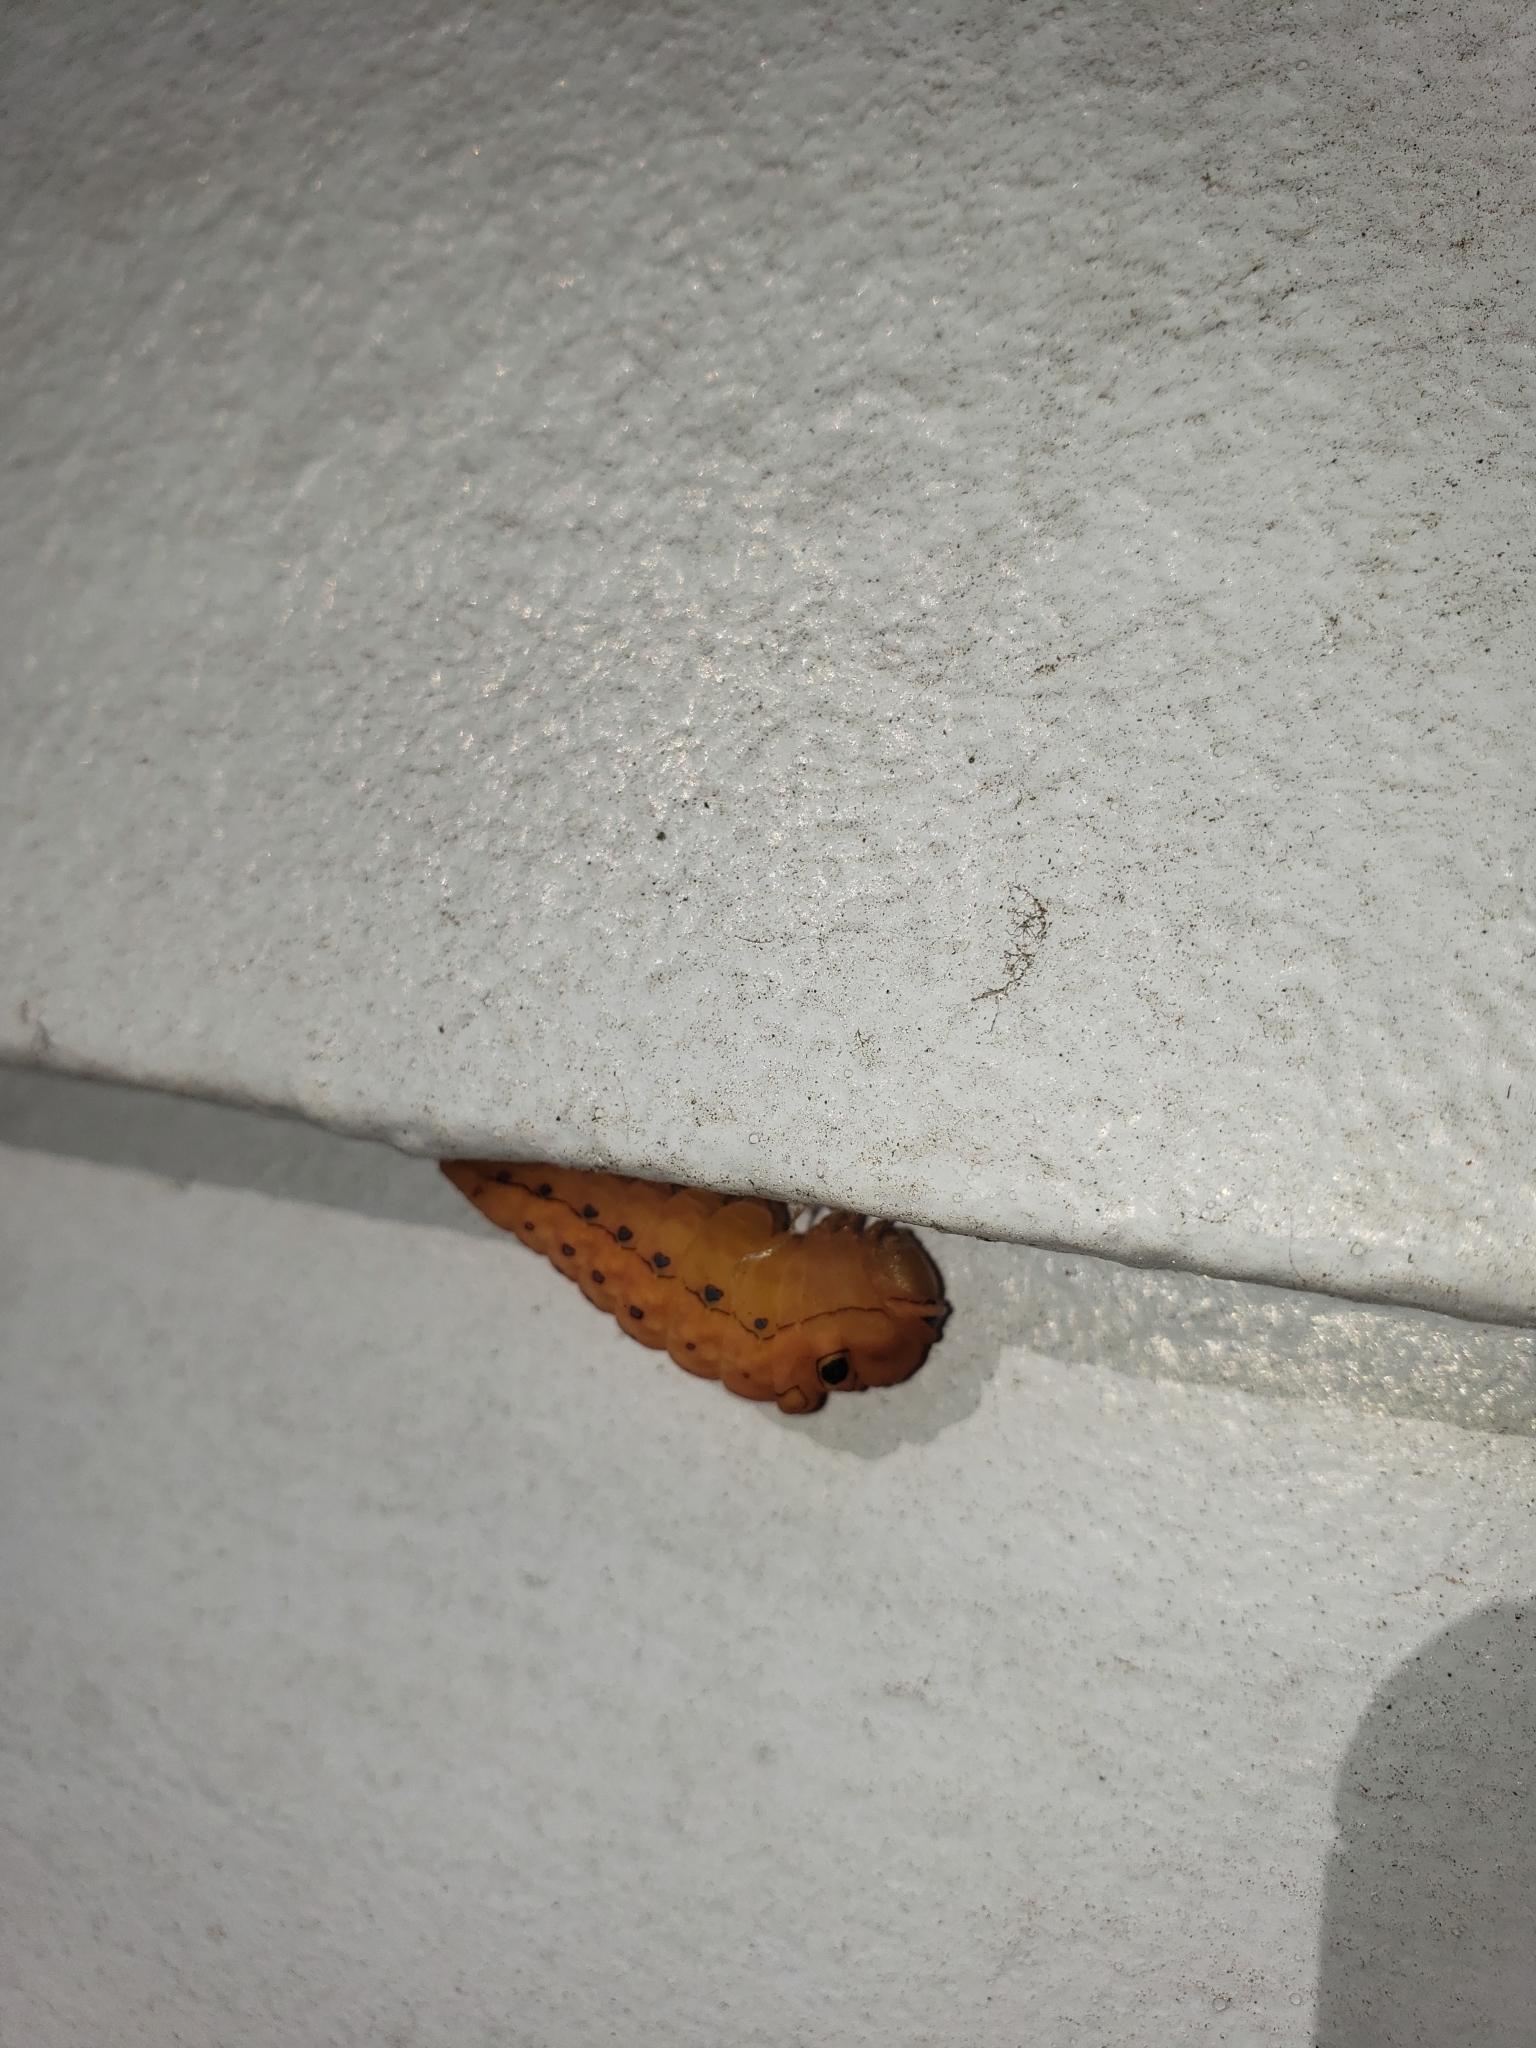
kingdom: Animalia
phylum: Arthropoda
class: Insecta
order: Lepidoptera
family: Papilionidae
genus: Papilio
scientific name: Papilio troilus
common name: Spicebush swallowtail
